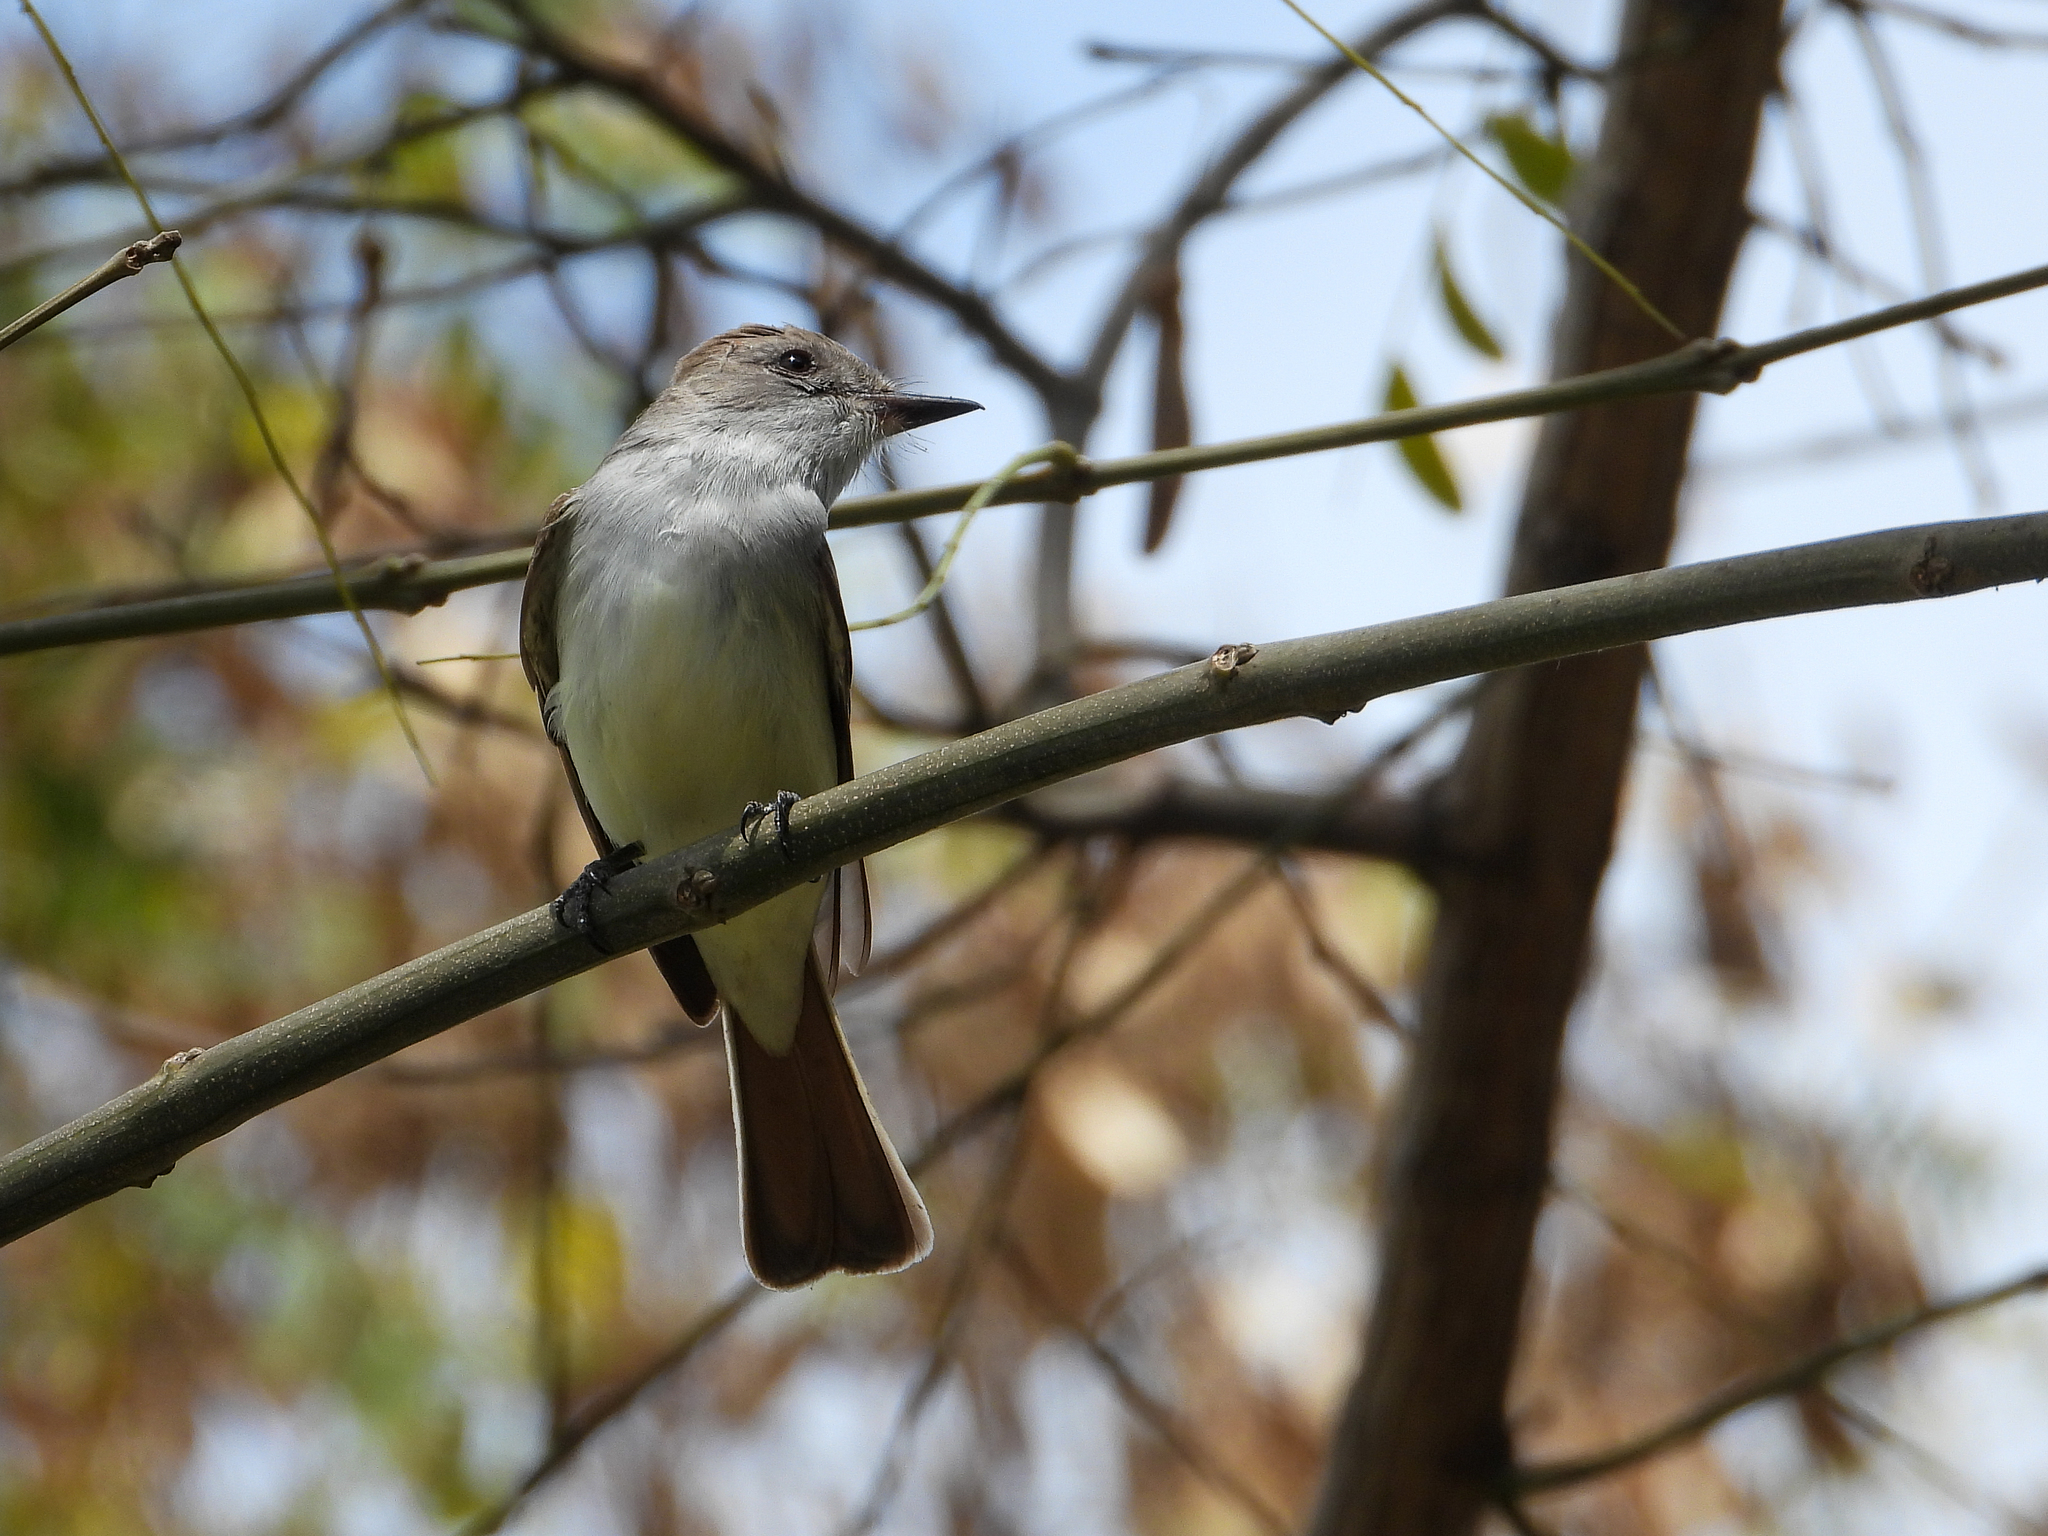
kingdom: Animalia
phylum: Chordata
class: Aves
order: Passeriformes
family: Tyrannidae
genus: Myiarchus
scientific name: Myiarchus cinerascens
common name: Ash-throated flycatcher
